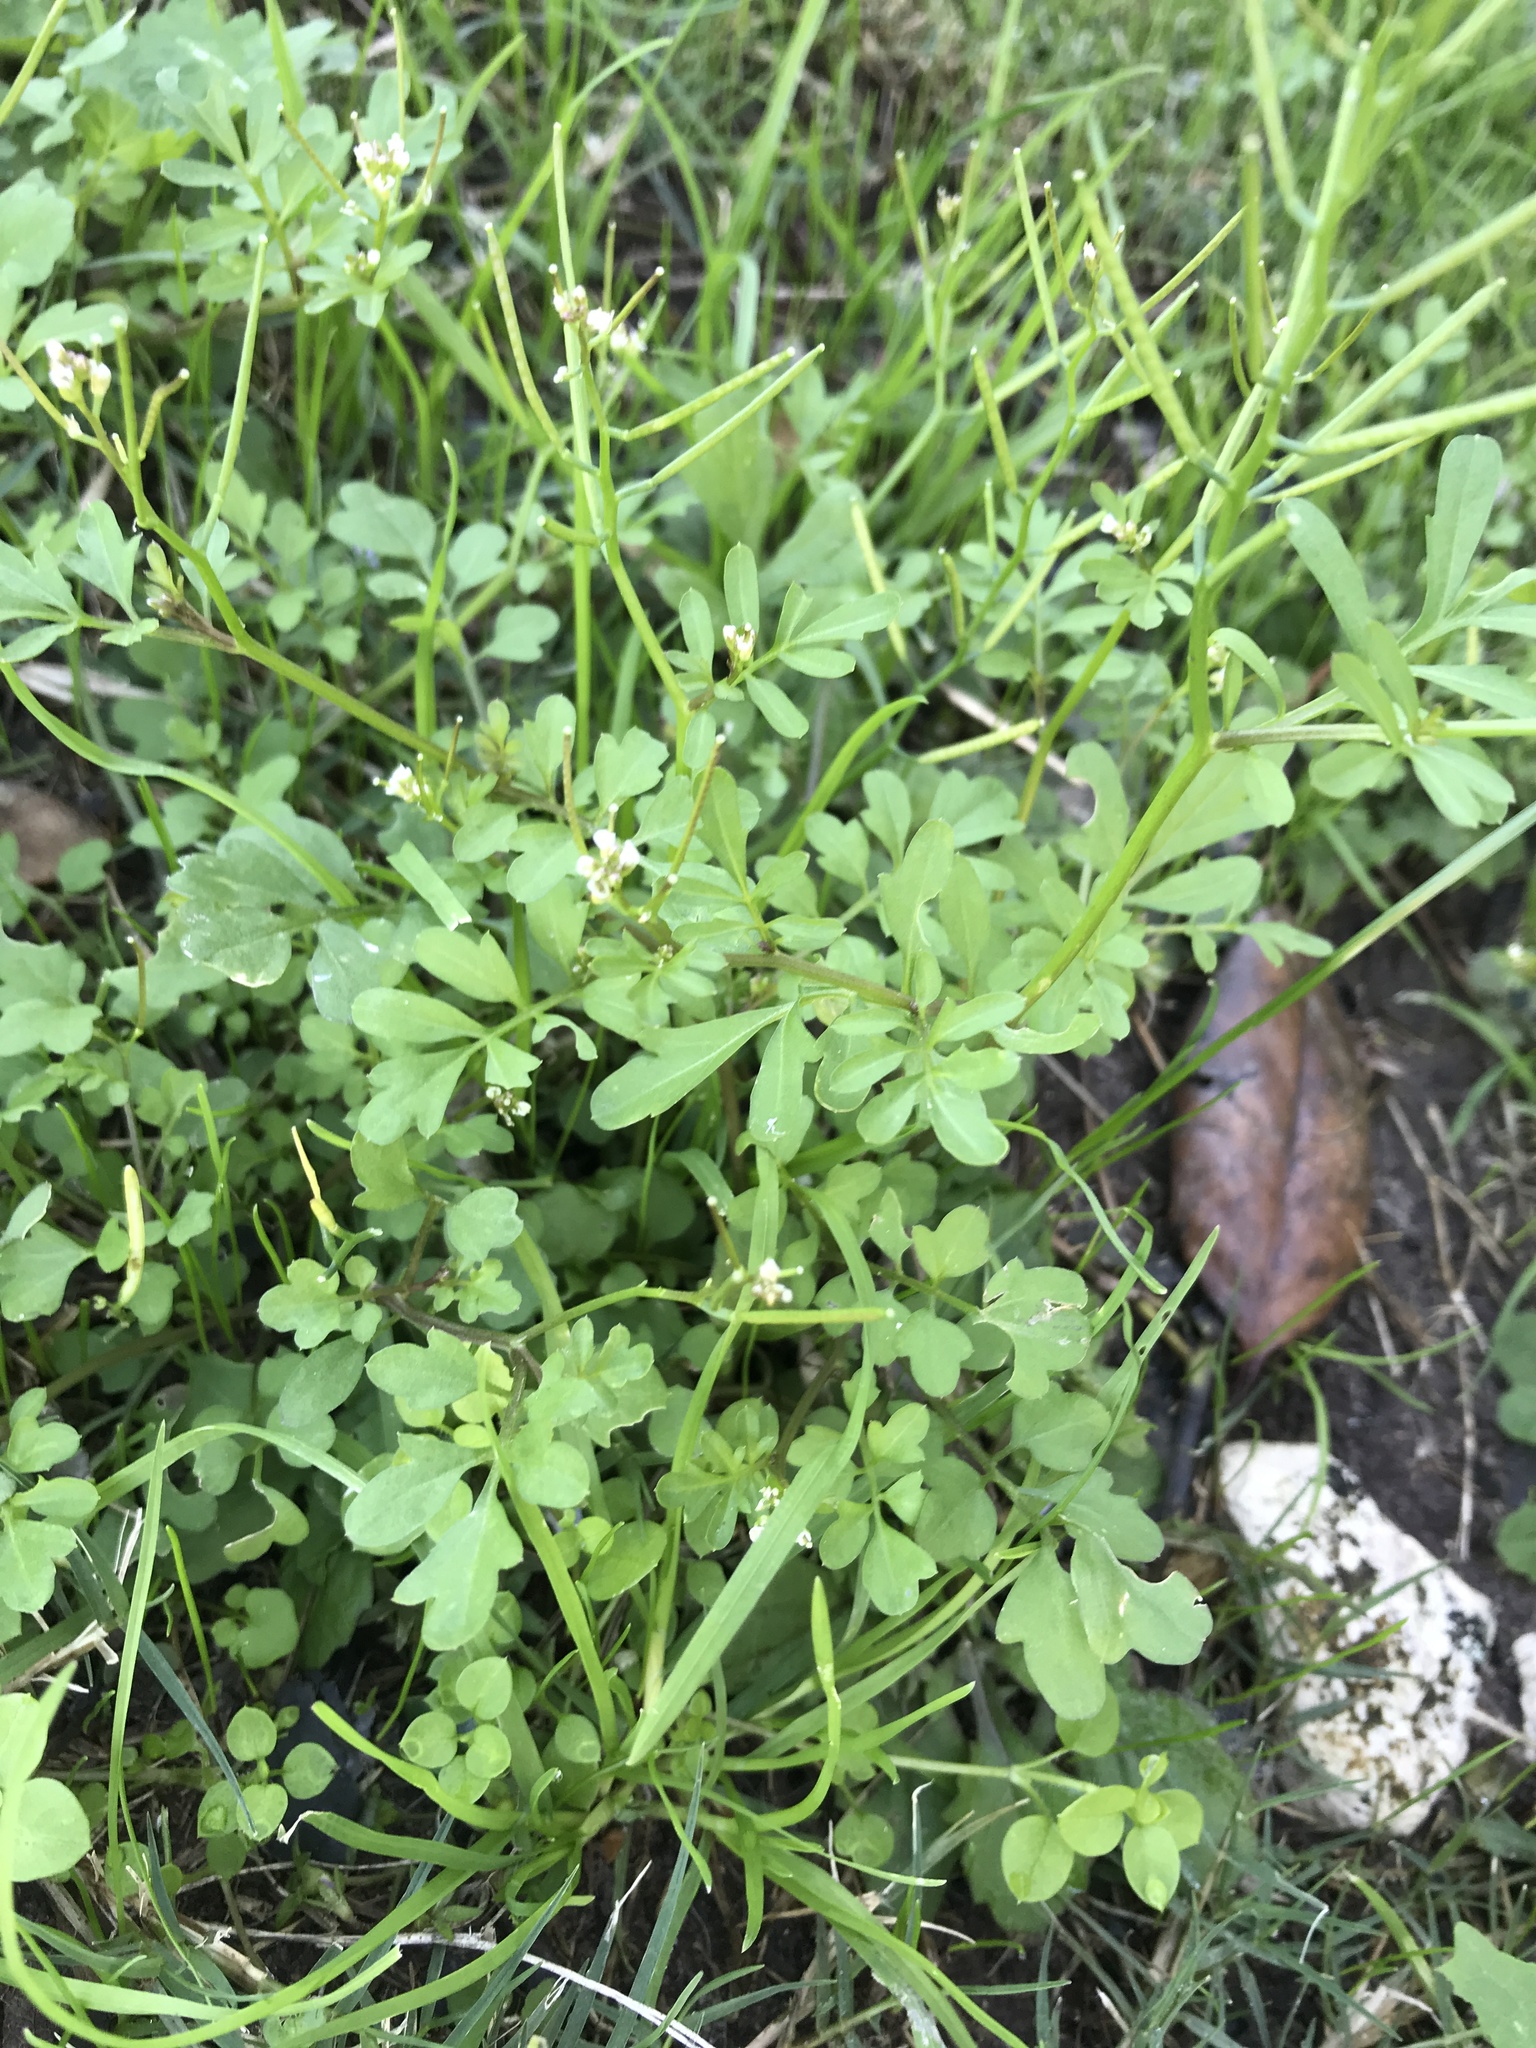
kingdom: Plantae
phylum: Tracheophyta
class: Magnoliopsida
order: Brassicales
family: Brassicaceae
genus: Cardamine
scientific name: Cardamine occulta
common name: Asian wavy bittercress
